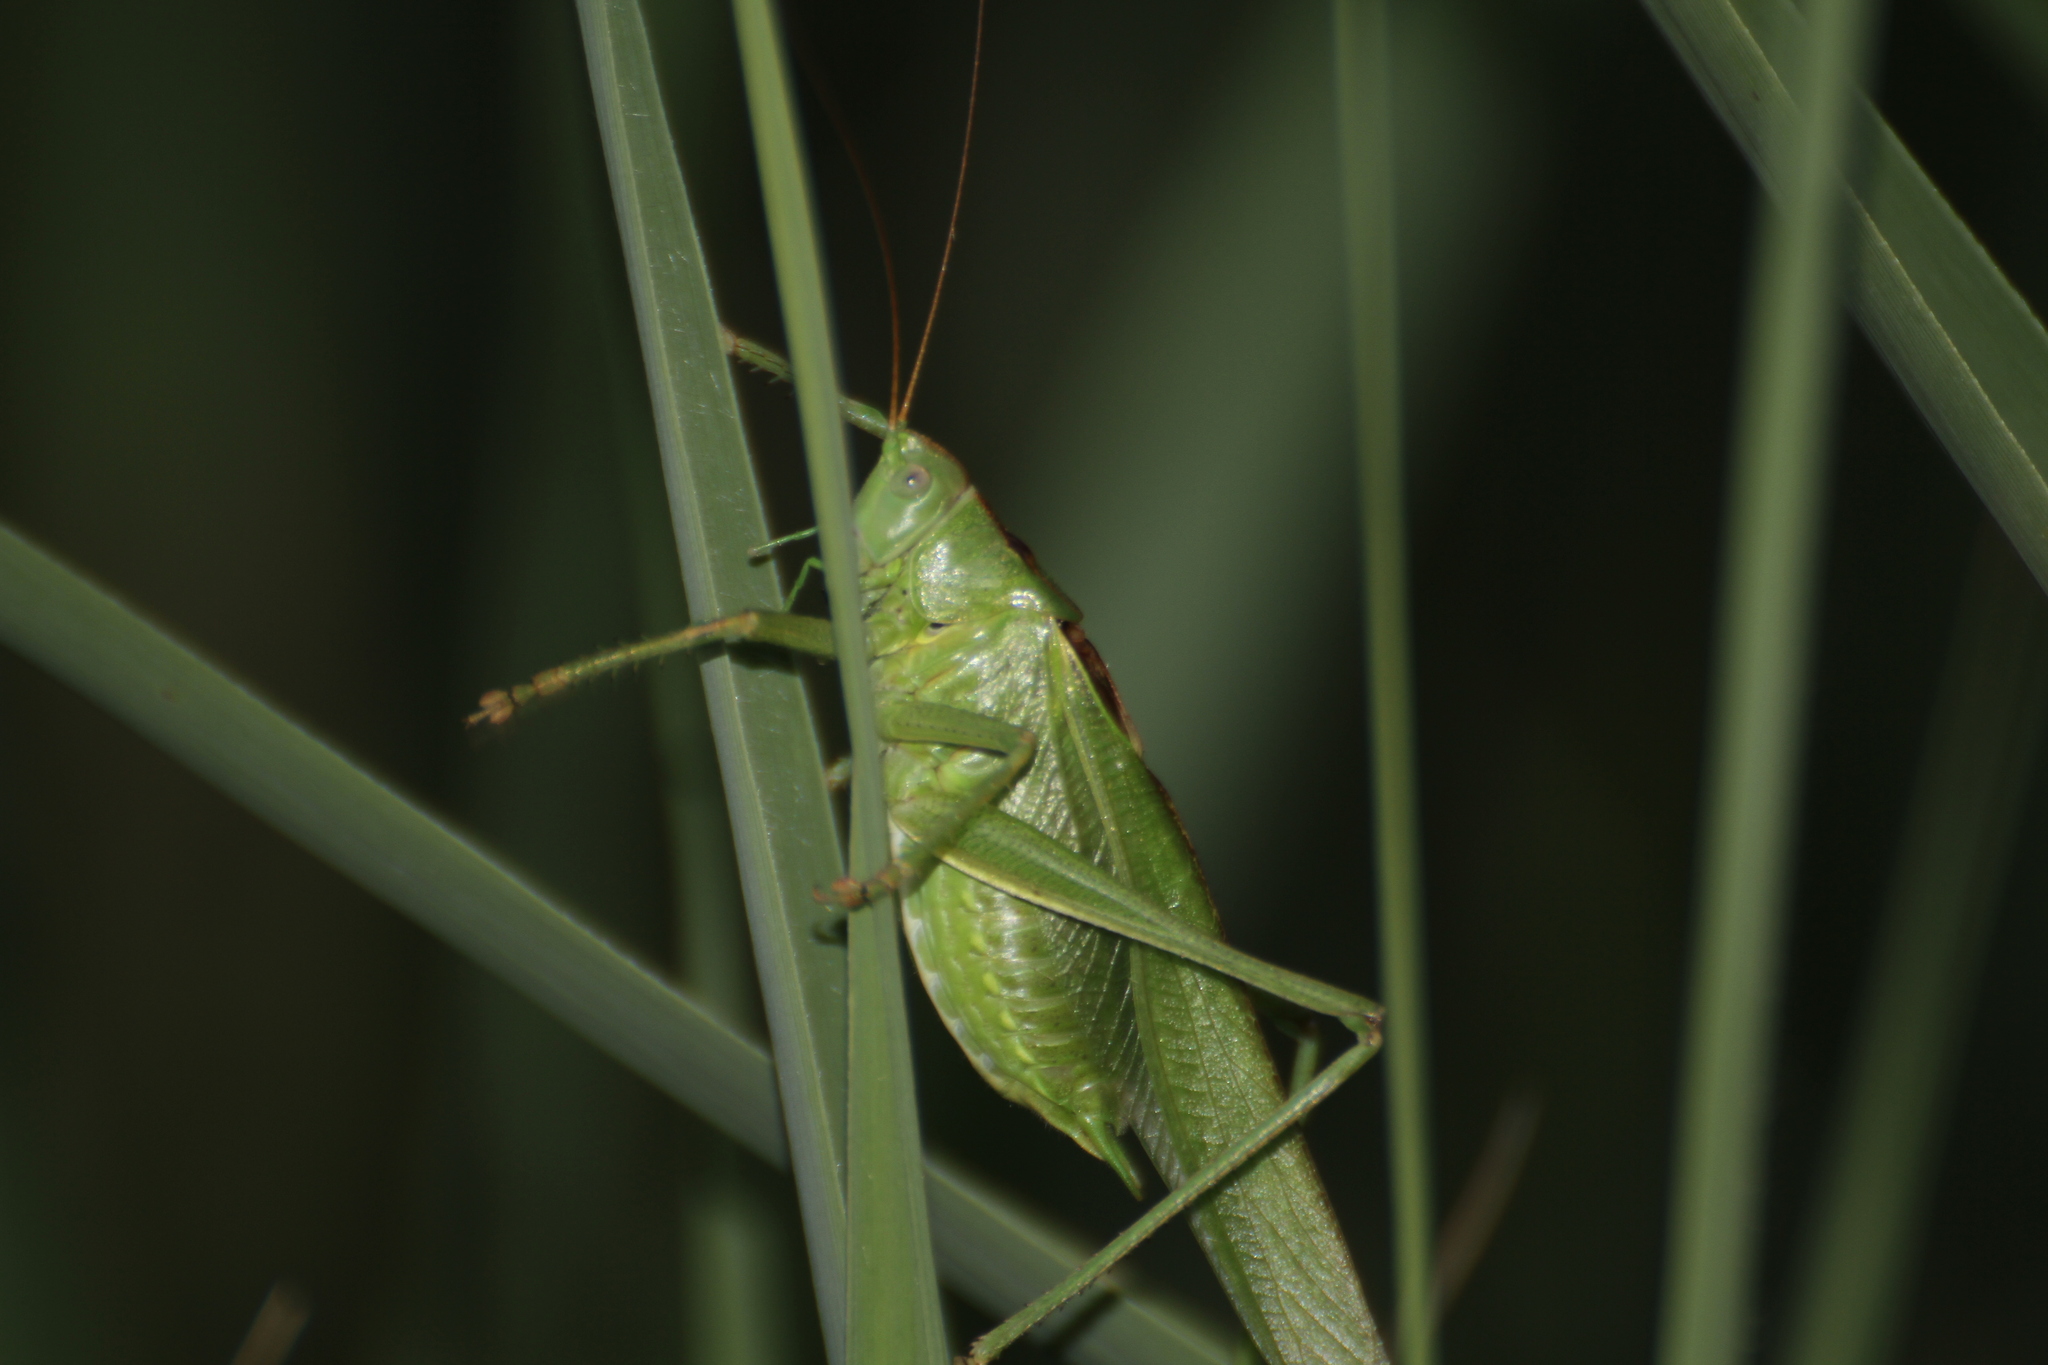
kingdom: Animalia
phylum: Arthropoda
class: Insecta
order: Orthoptera
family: Tettigoniidae
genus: Tettigonia
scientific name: Tettigonia viridissima
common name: Great green bush-cricket
